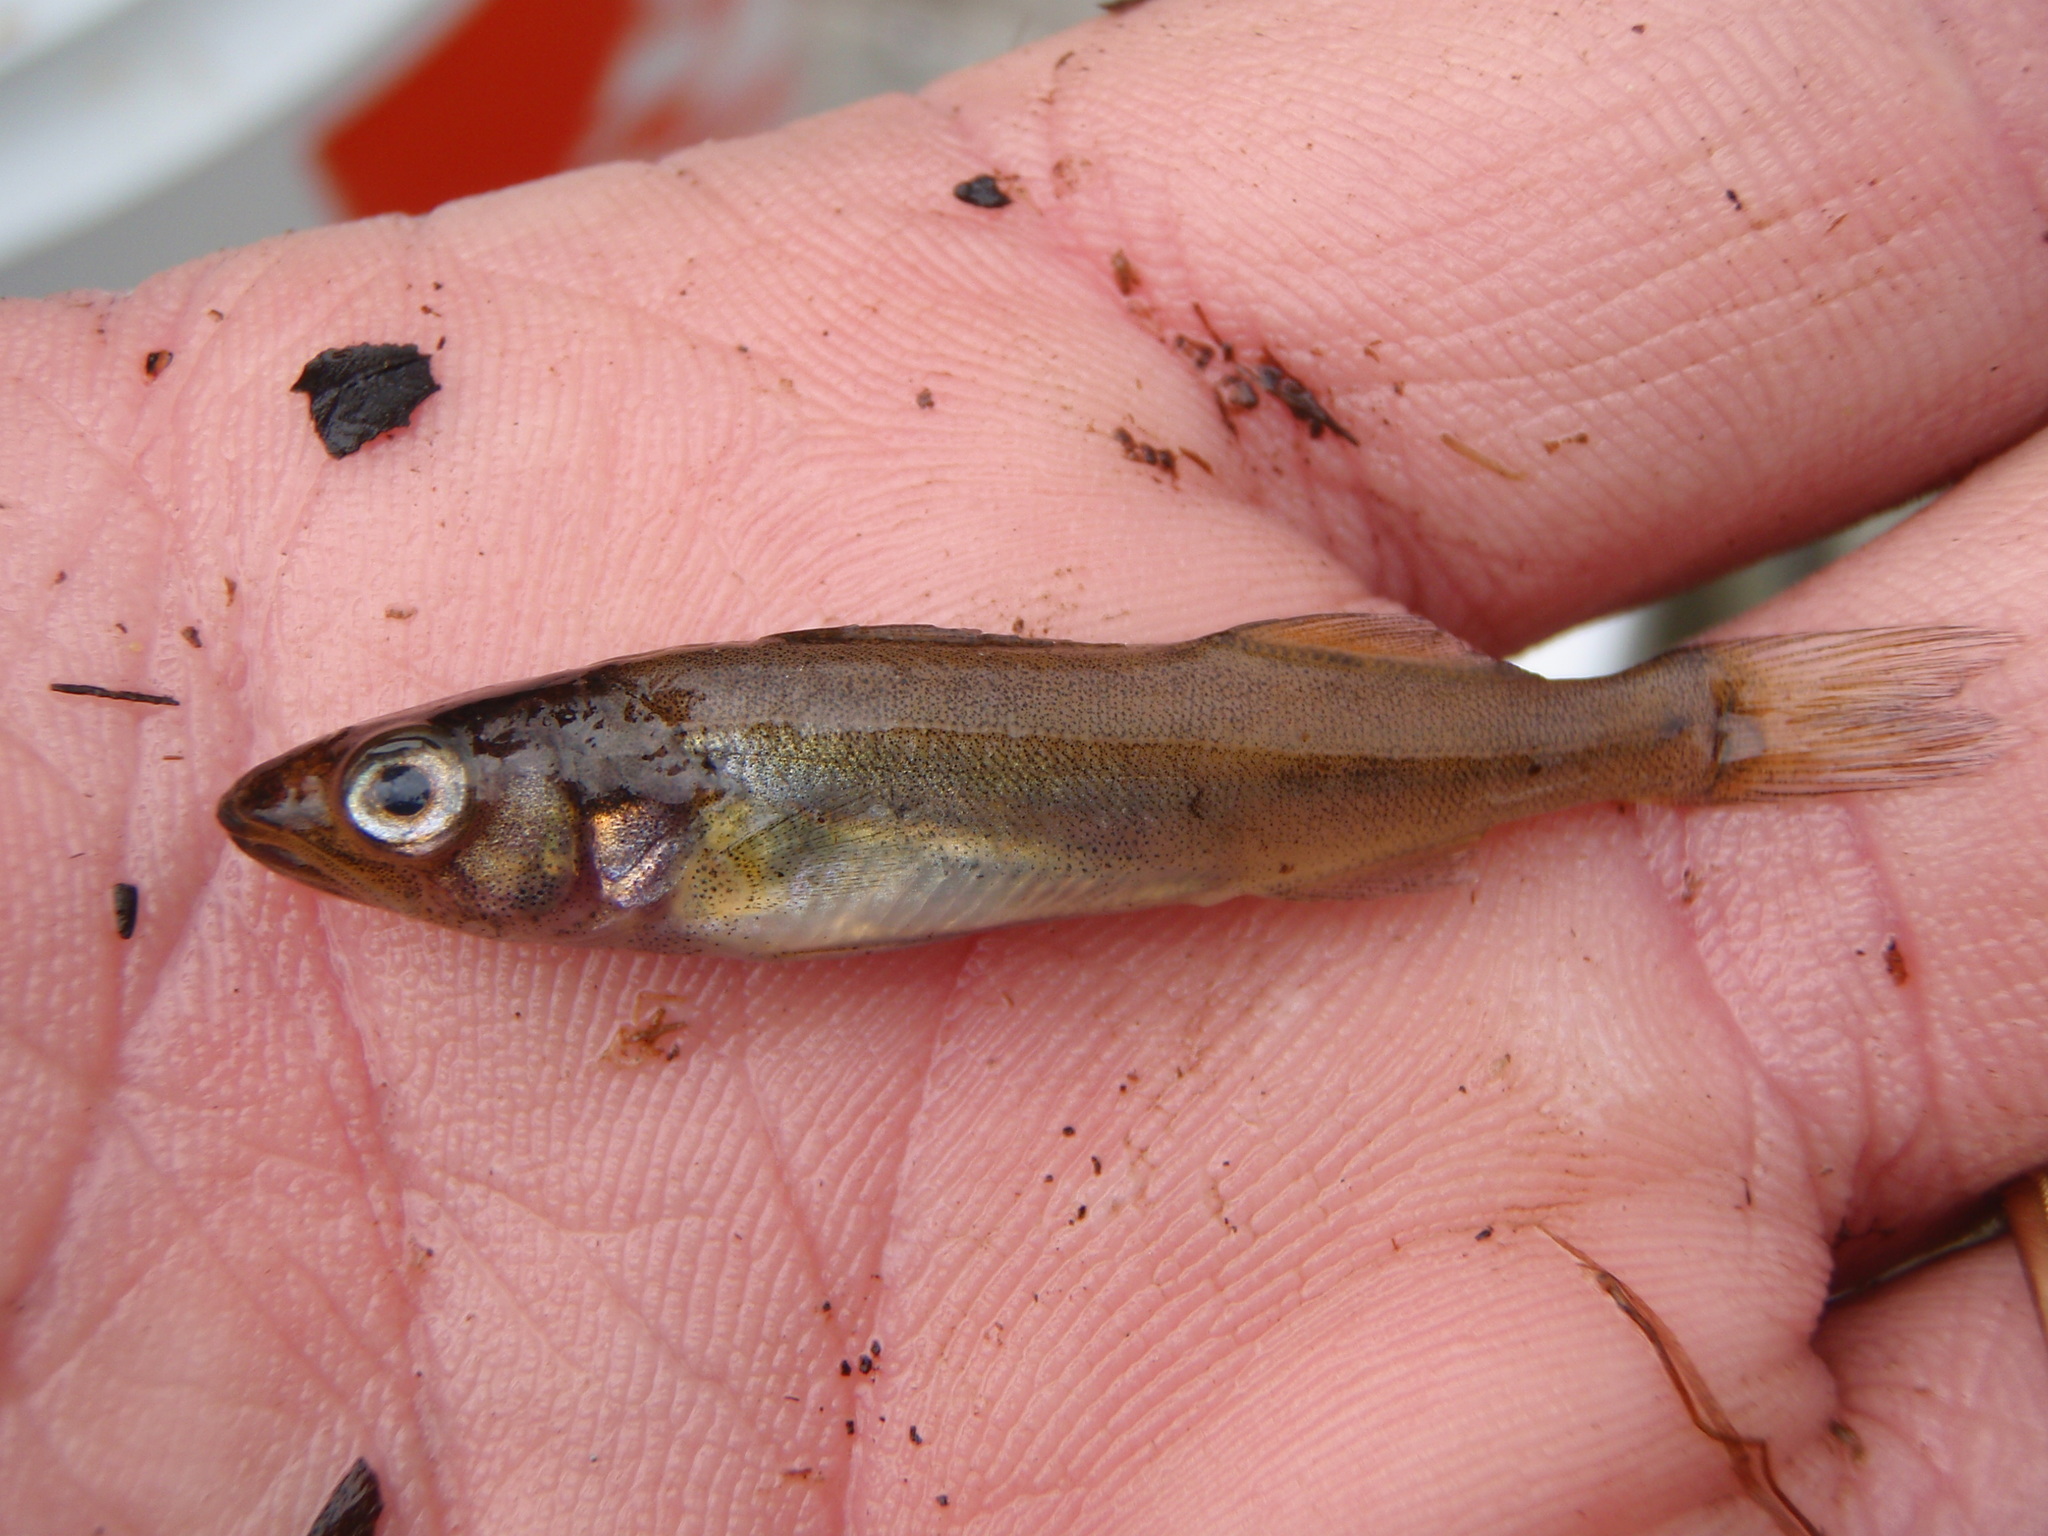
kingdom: Animalia
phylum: Chordata
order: Perciformes
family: Percidae
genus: Sander
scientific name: Sander vitreus
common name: Walleye
